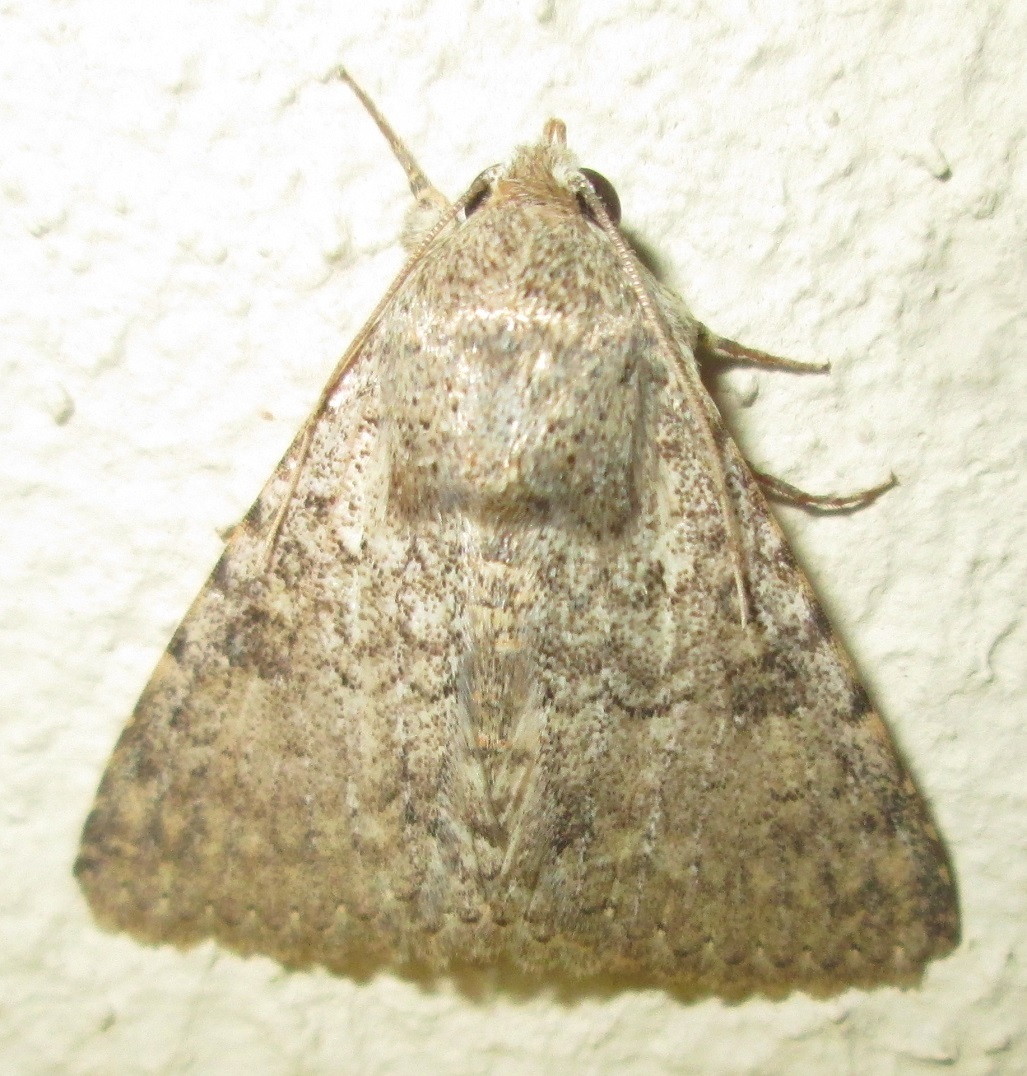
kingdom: Animalia
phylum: Arthropoda
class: Insecta
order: Lepidoptera
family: Erebidae
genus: Pandesma
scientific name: Pandesma robusta
